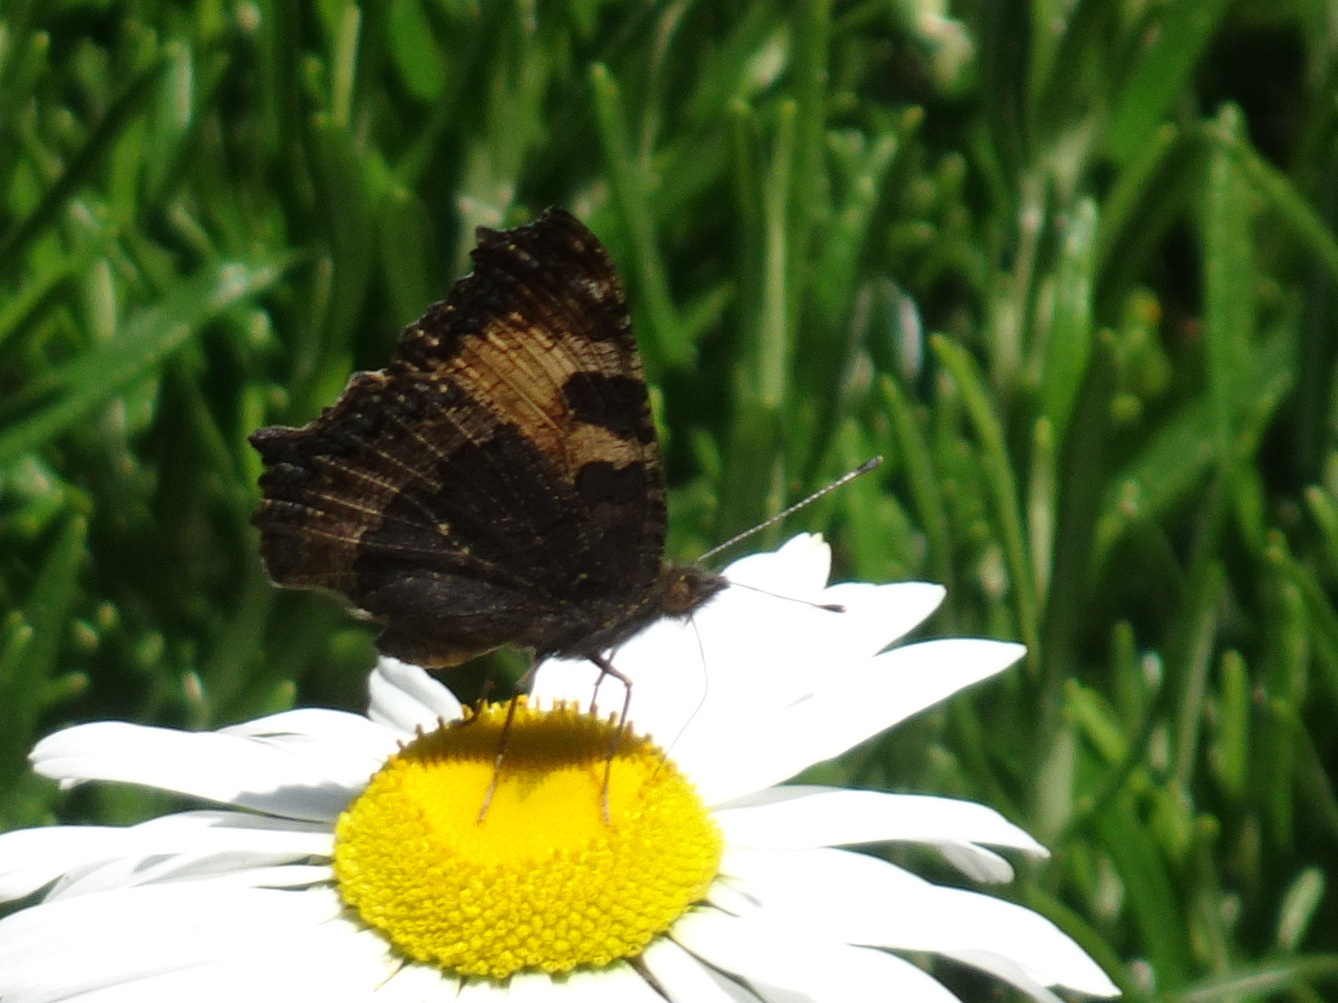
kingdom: Animalia
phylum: Arthropoda
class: Insecta
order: Lepidoptera
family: Nymphalidae
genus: Aglais
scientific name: Aglais urticae
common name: Small tortoiseshell
